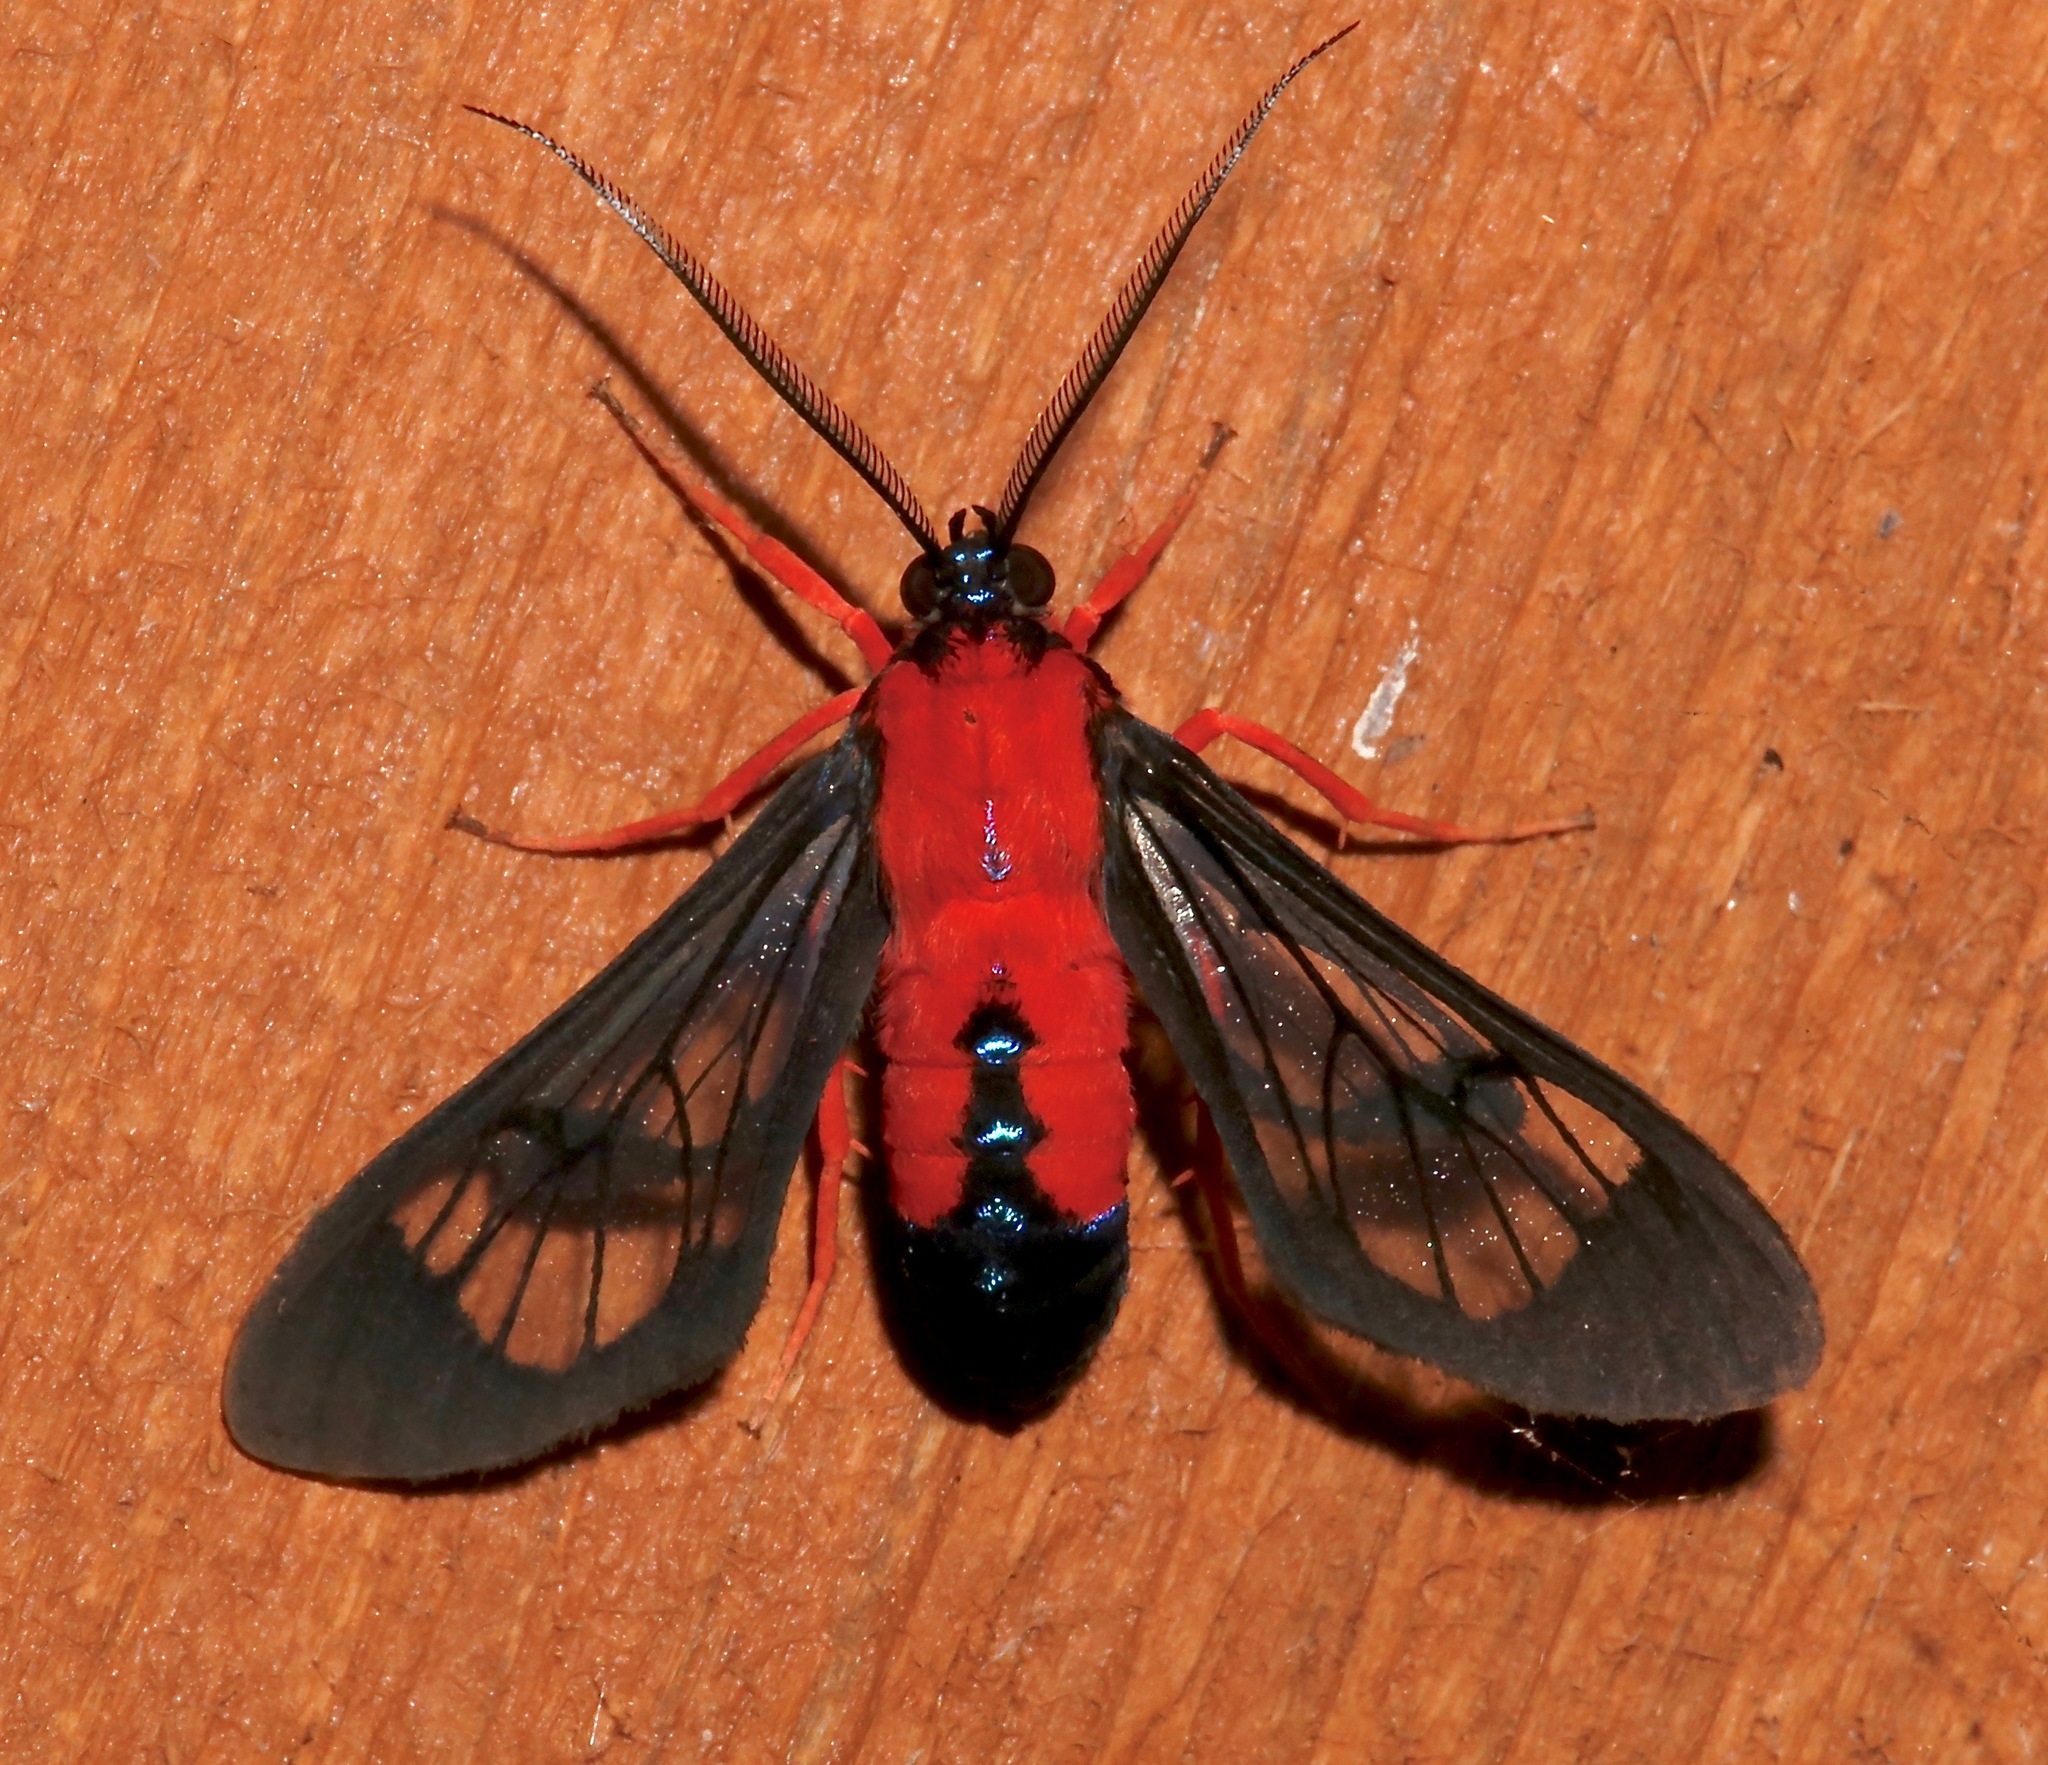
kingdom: Animalia
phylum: Arthropoda
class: Insecta
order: Lepidoptera
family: Erebidae
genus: Cosmosoma
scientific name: Cosmosoma myrodora
